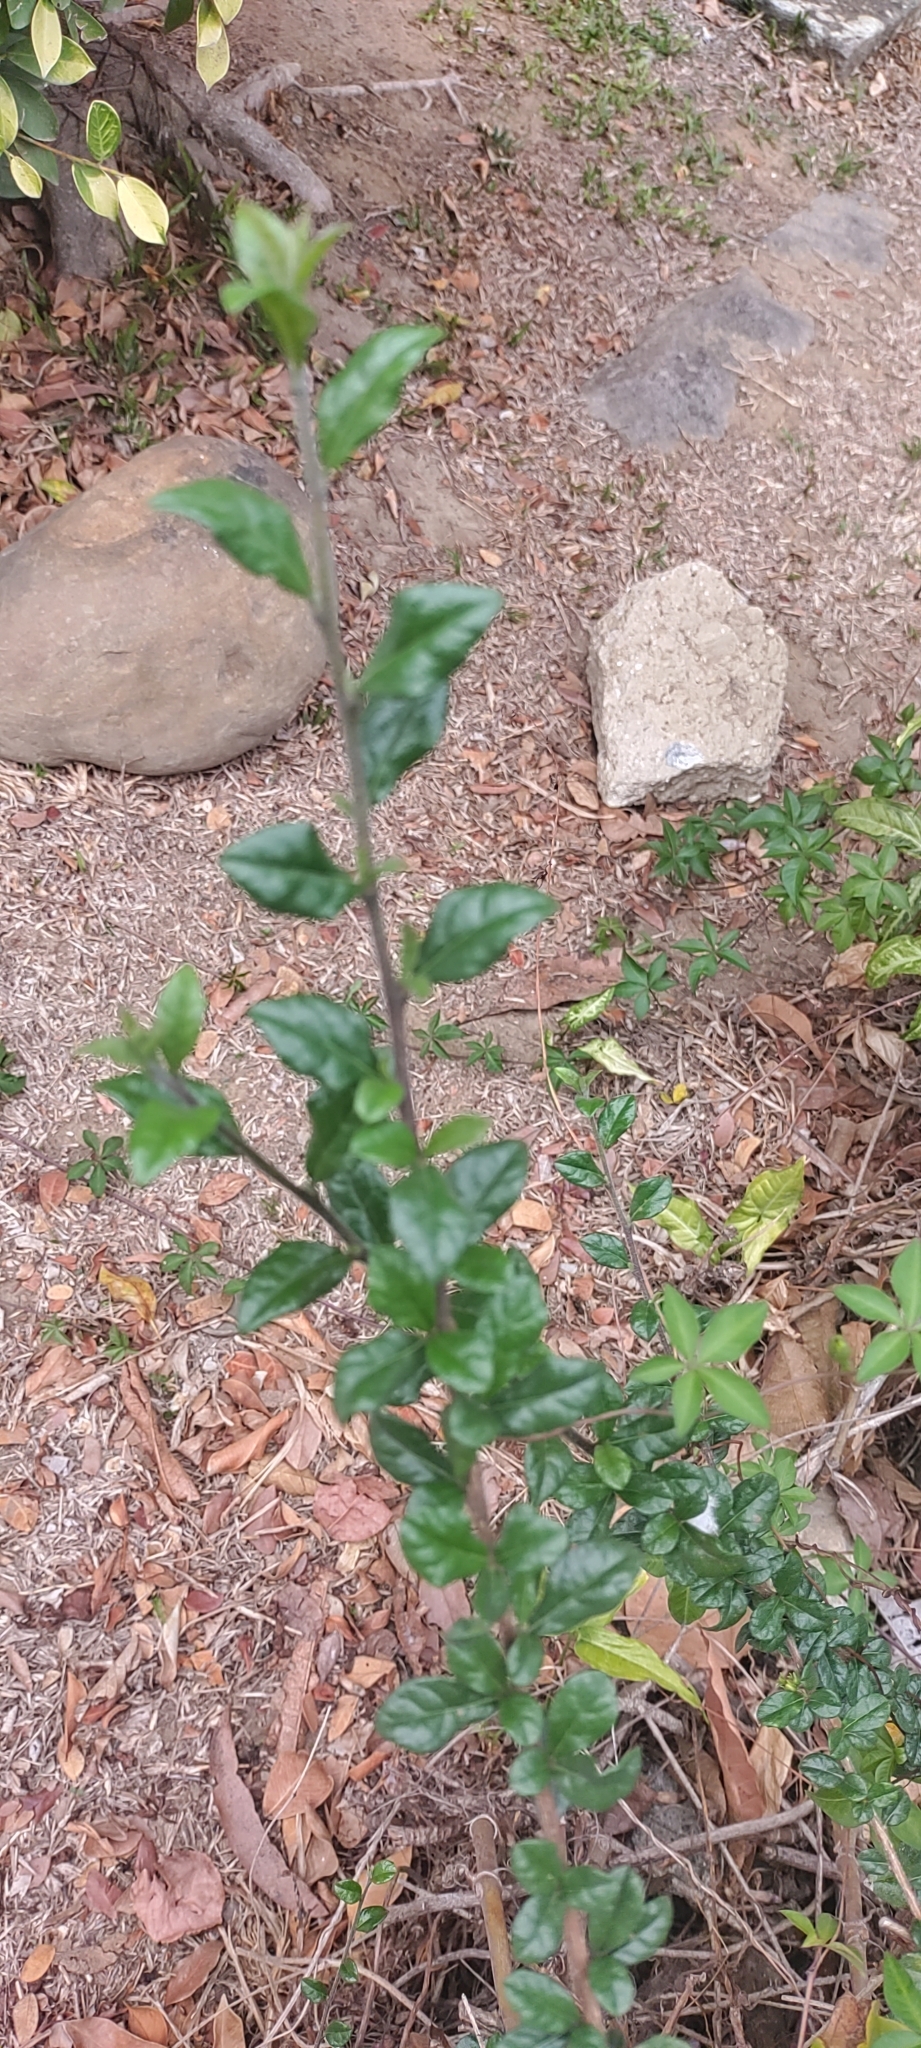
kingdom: Plantae
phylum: Tracheophyta
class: Magnoliopsida
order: Boraginales
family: Ehretiaceae
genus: Ehretia
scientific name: Ehretia microphylla
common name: Fukien-tea
